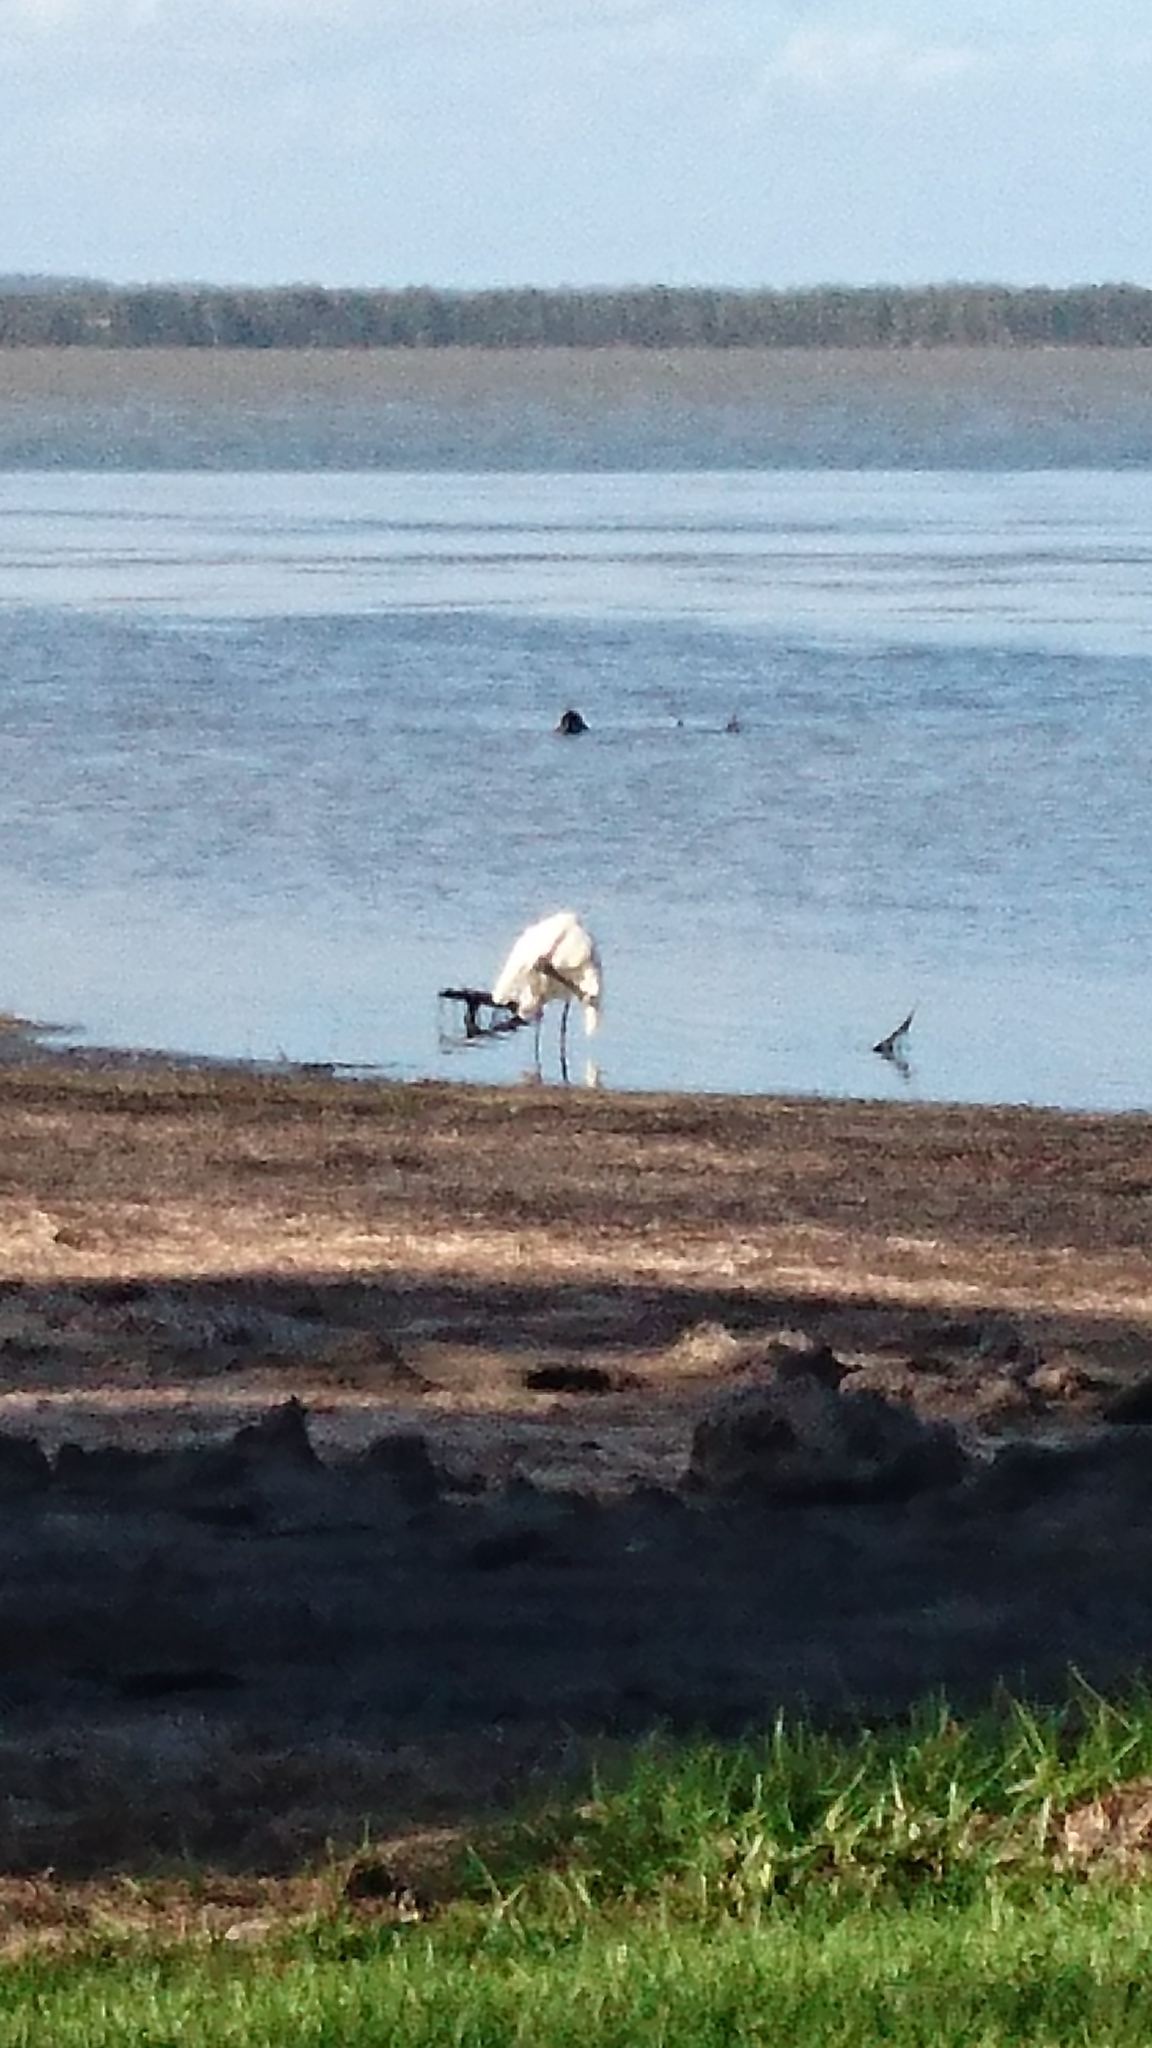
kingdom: Animalia
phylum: Chordata
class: Aves
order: Pelecaniformes
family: Threskiornithidae
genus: Platalea
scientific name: Platalea regia
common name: Royal spoonbill
